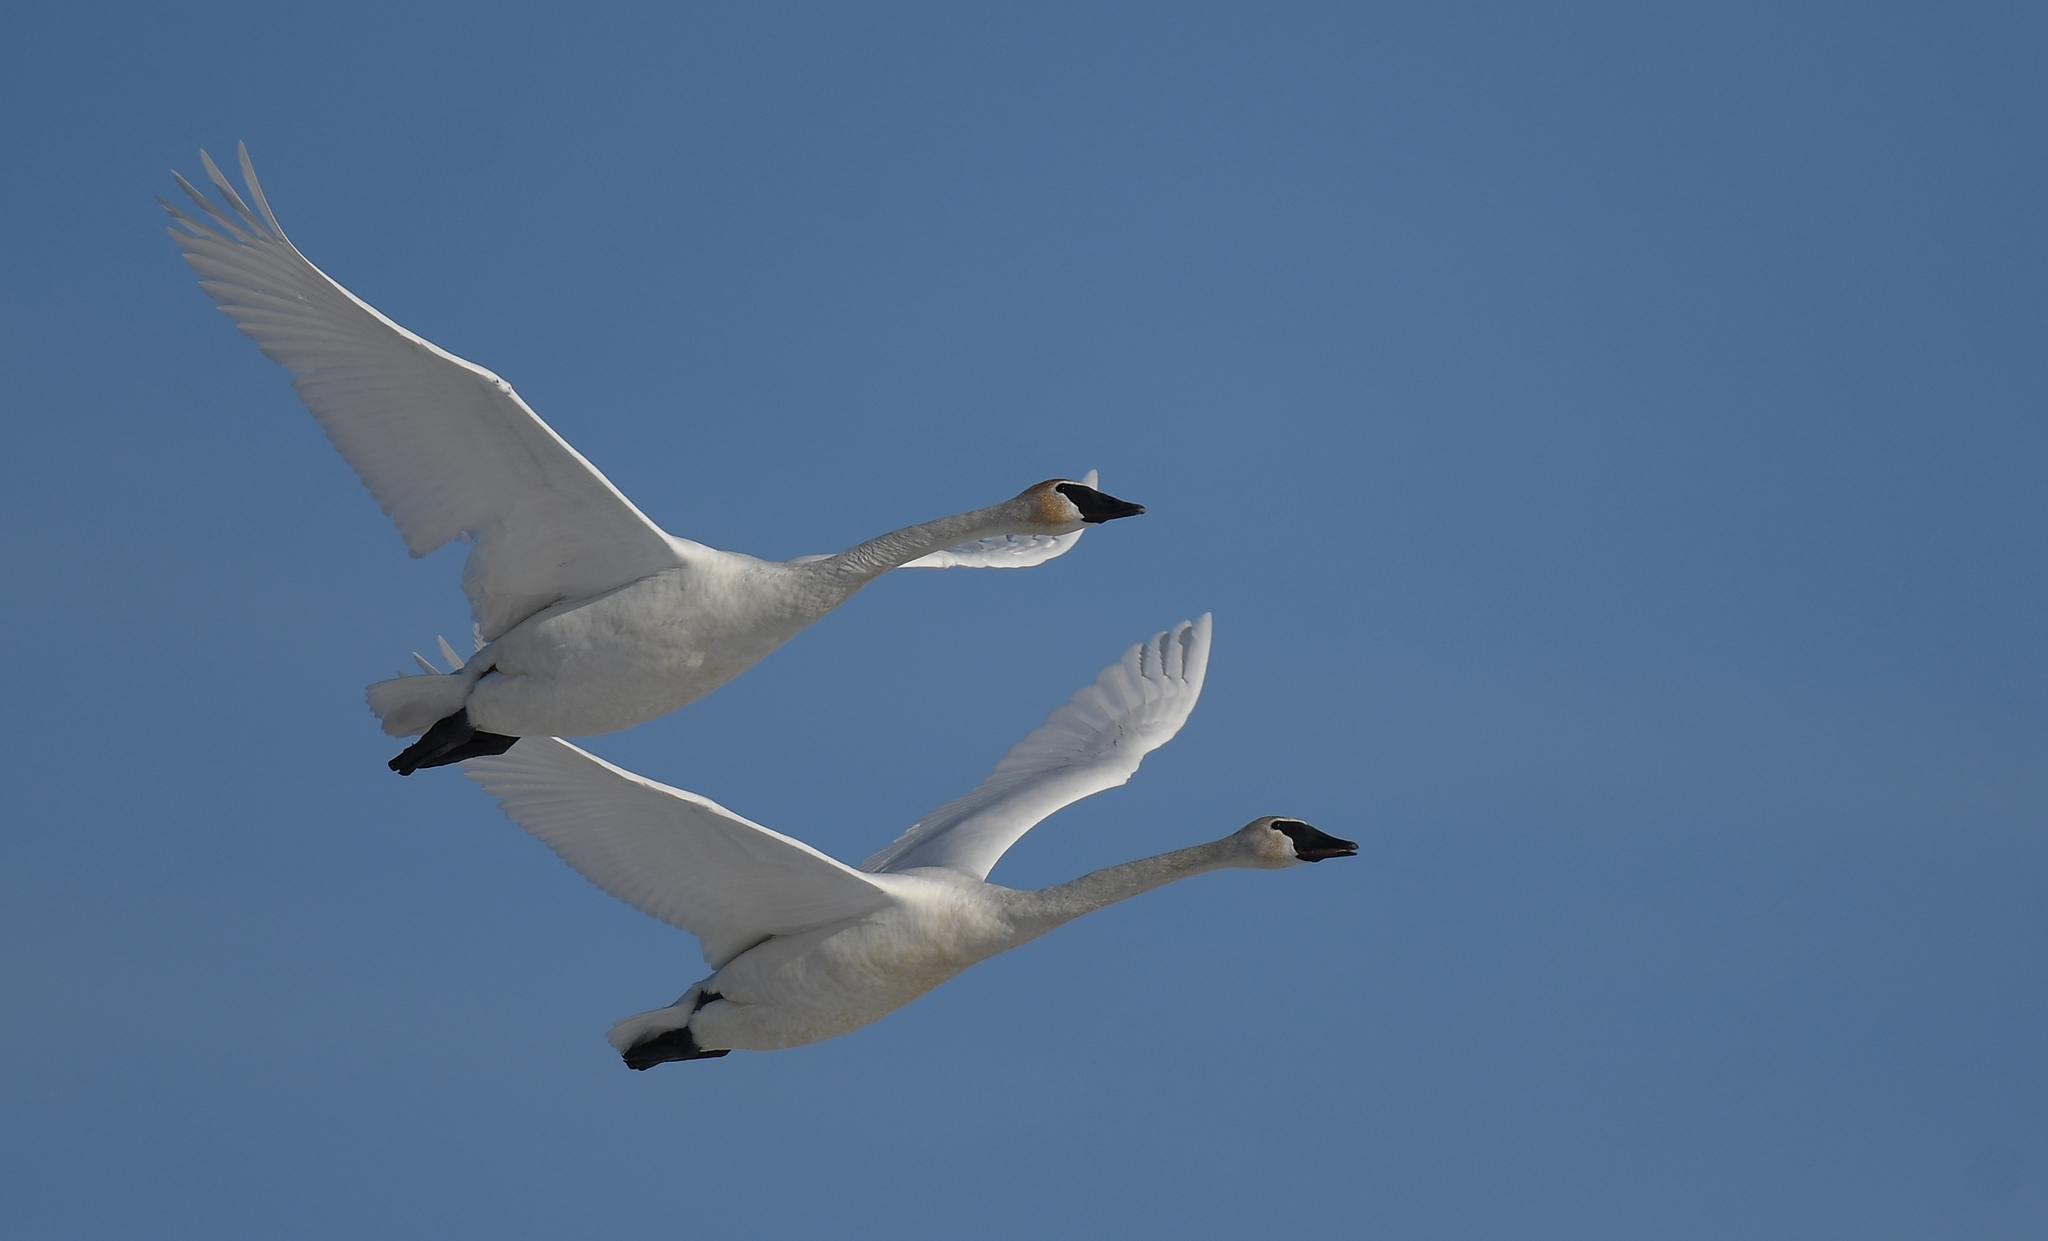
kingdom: Animalia
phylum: Chordata
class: Aves
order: Anseriformes
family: Anatidae
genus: Cygnus
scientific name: Cygnus buccinator
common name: Trumpeter swan
